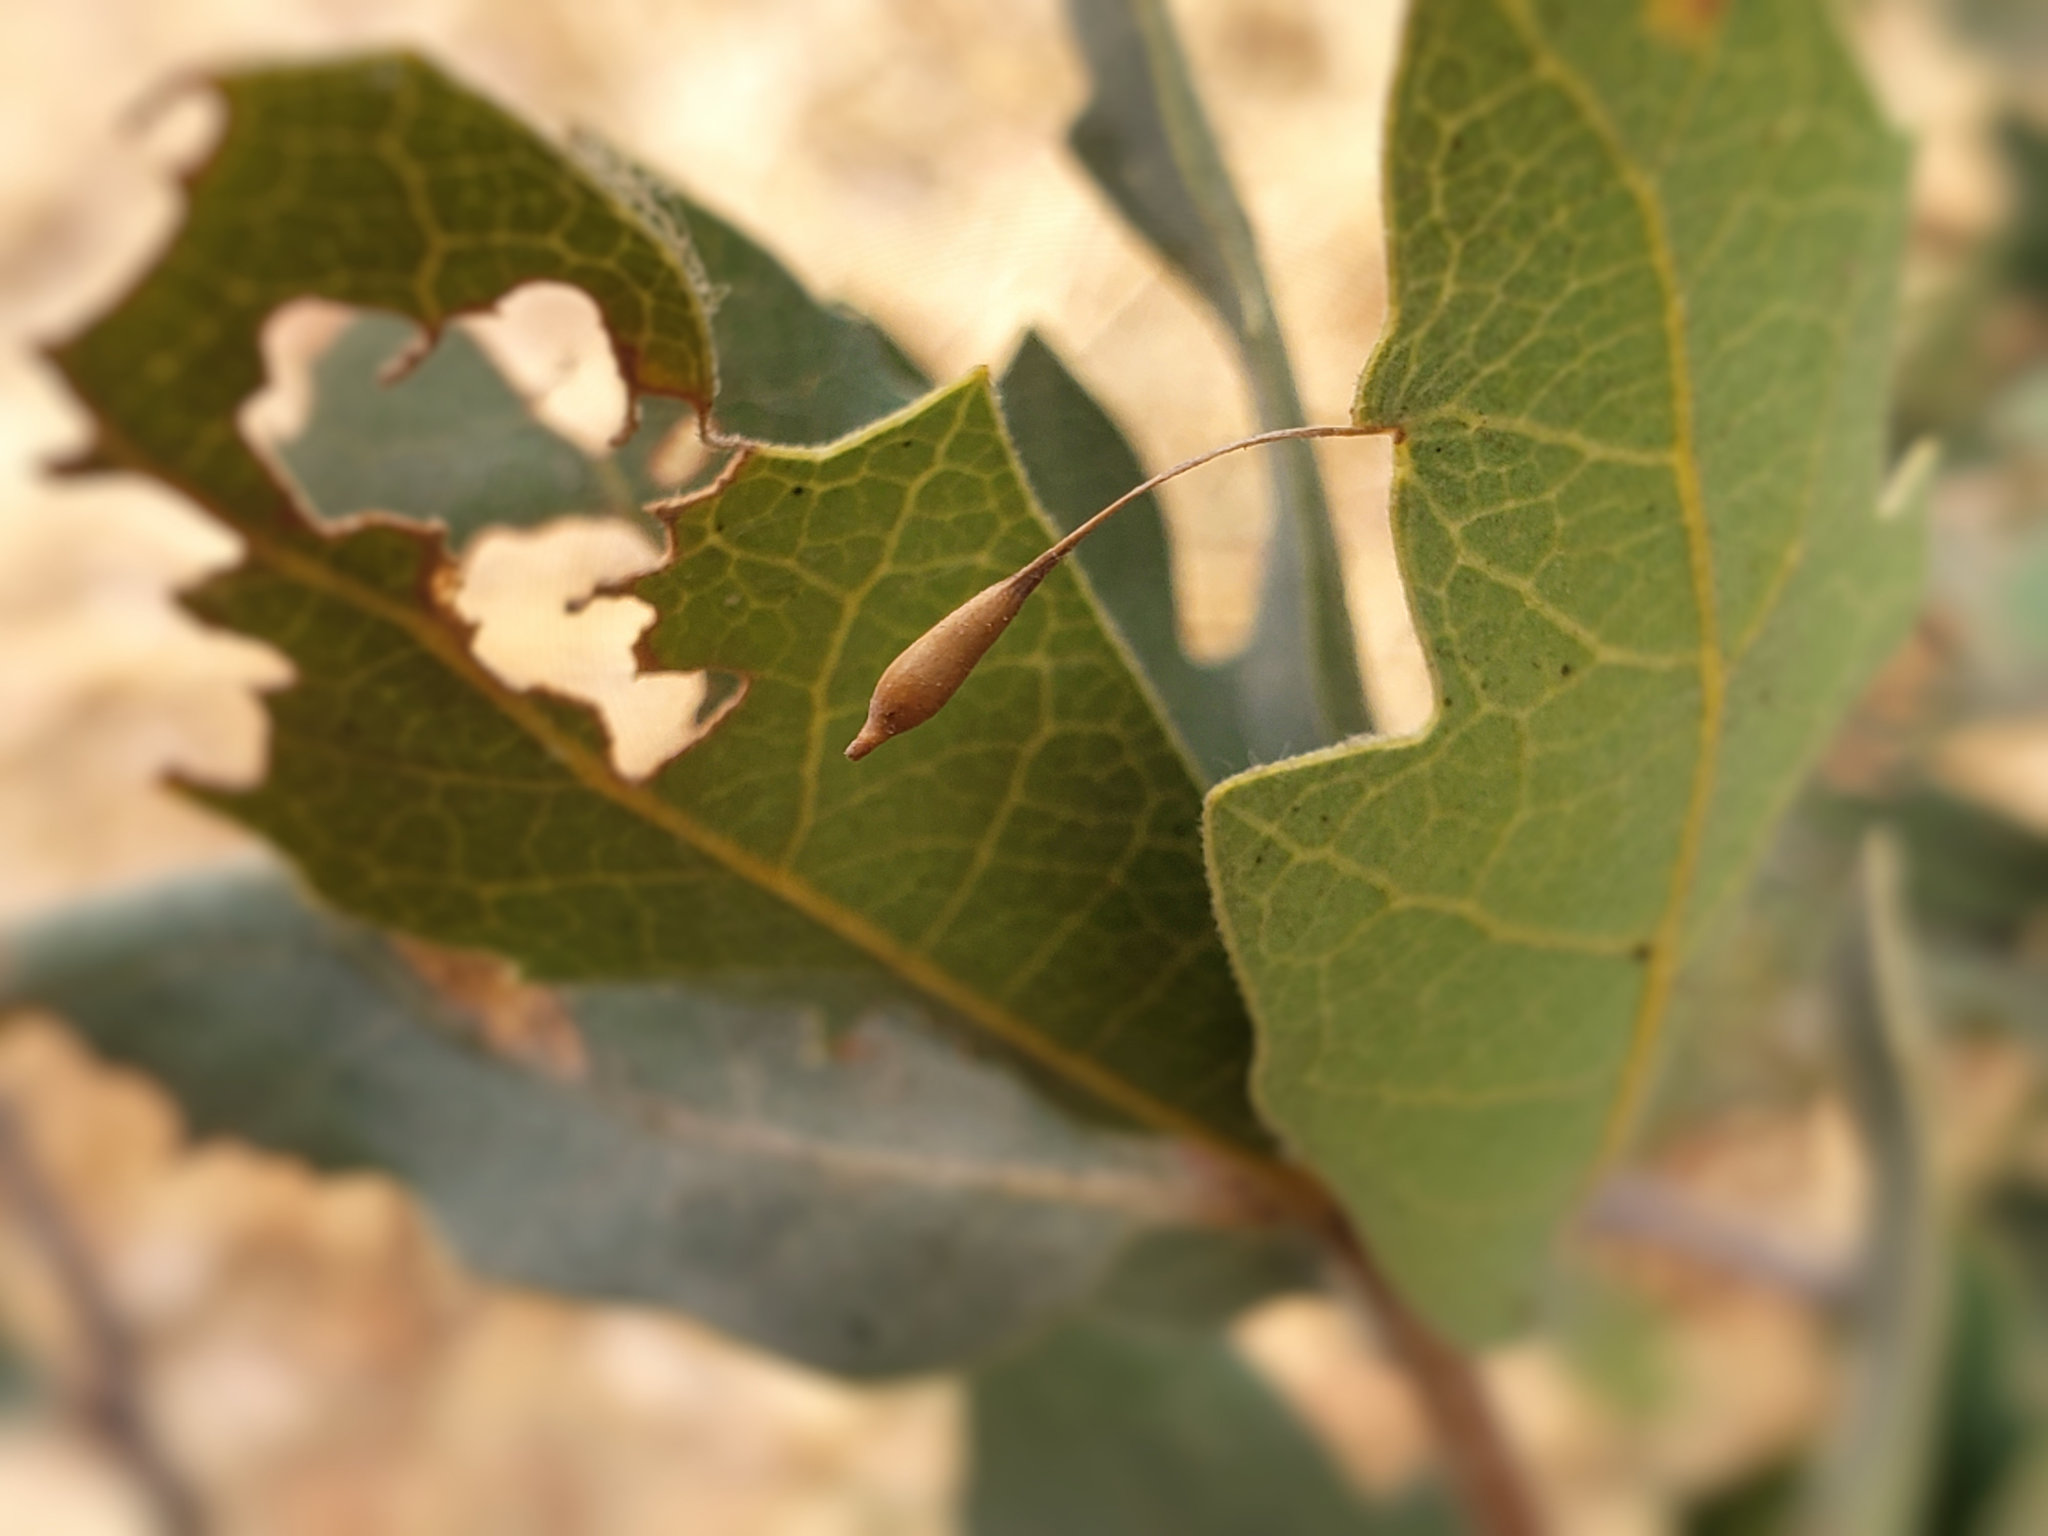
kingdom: Animalia
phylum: Arthropoda
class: Insecta
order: Hymenoptera
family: Cynipidae
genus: Andricus
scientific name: Andricus
